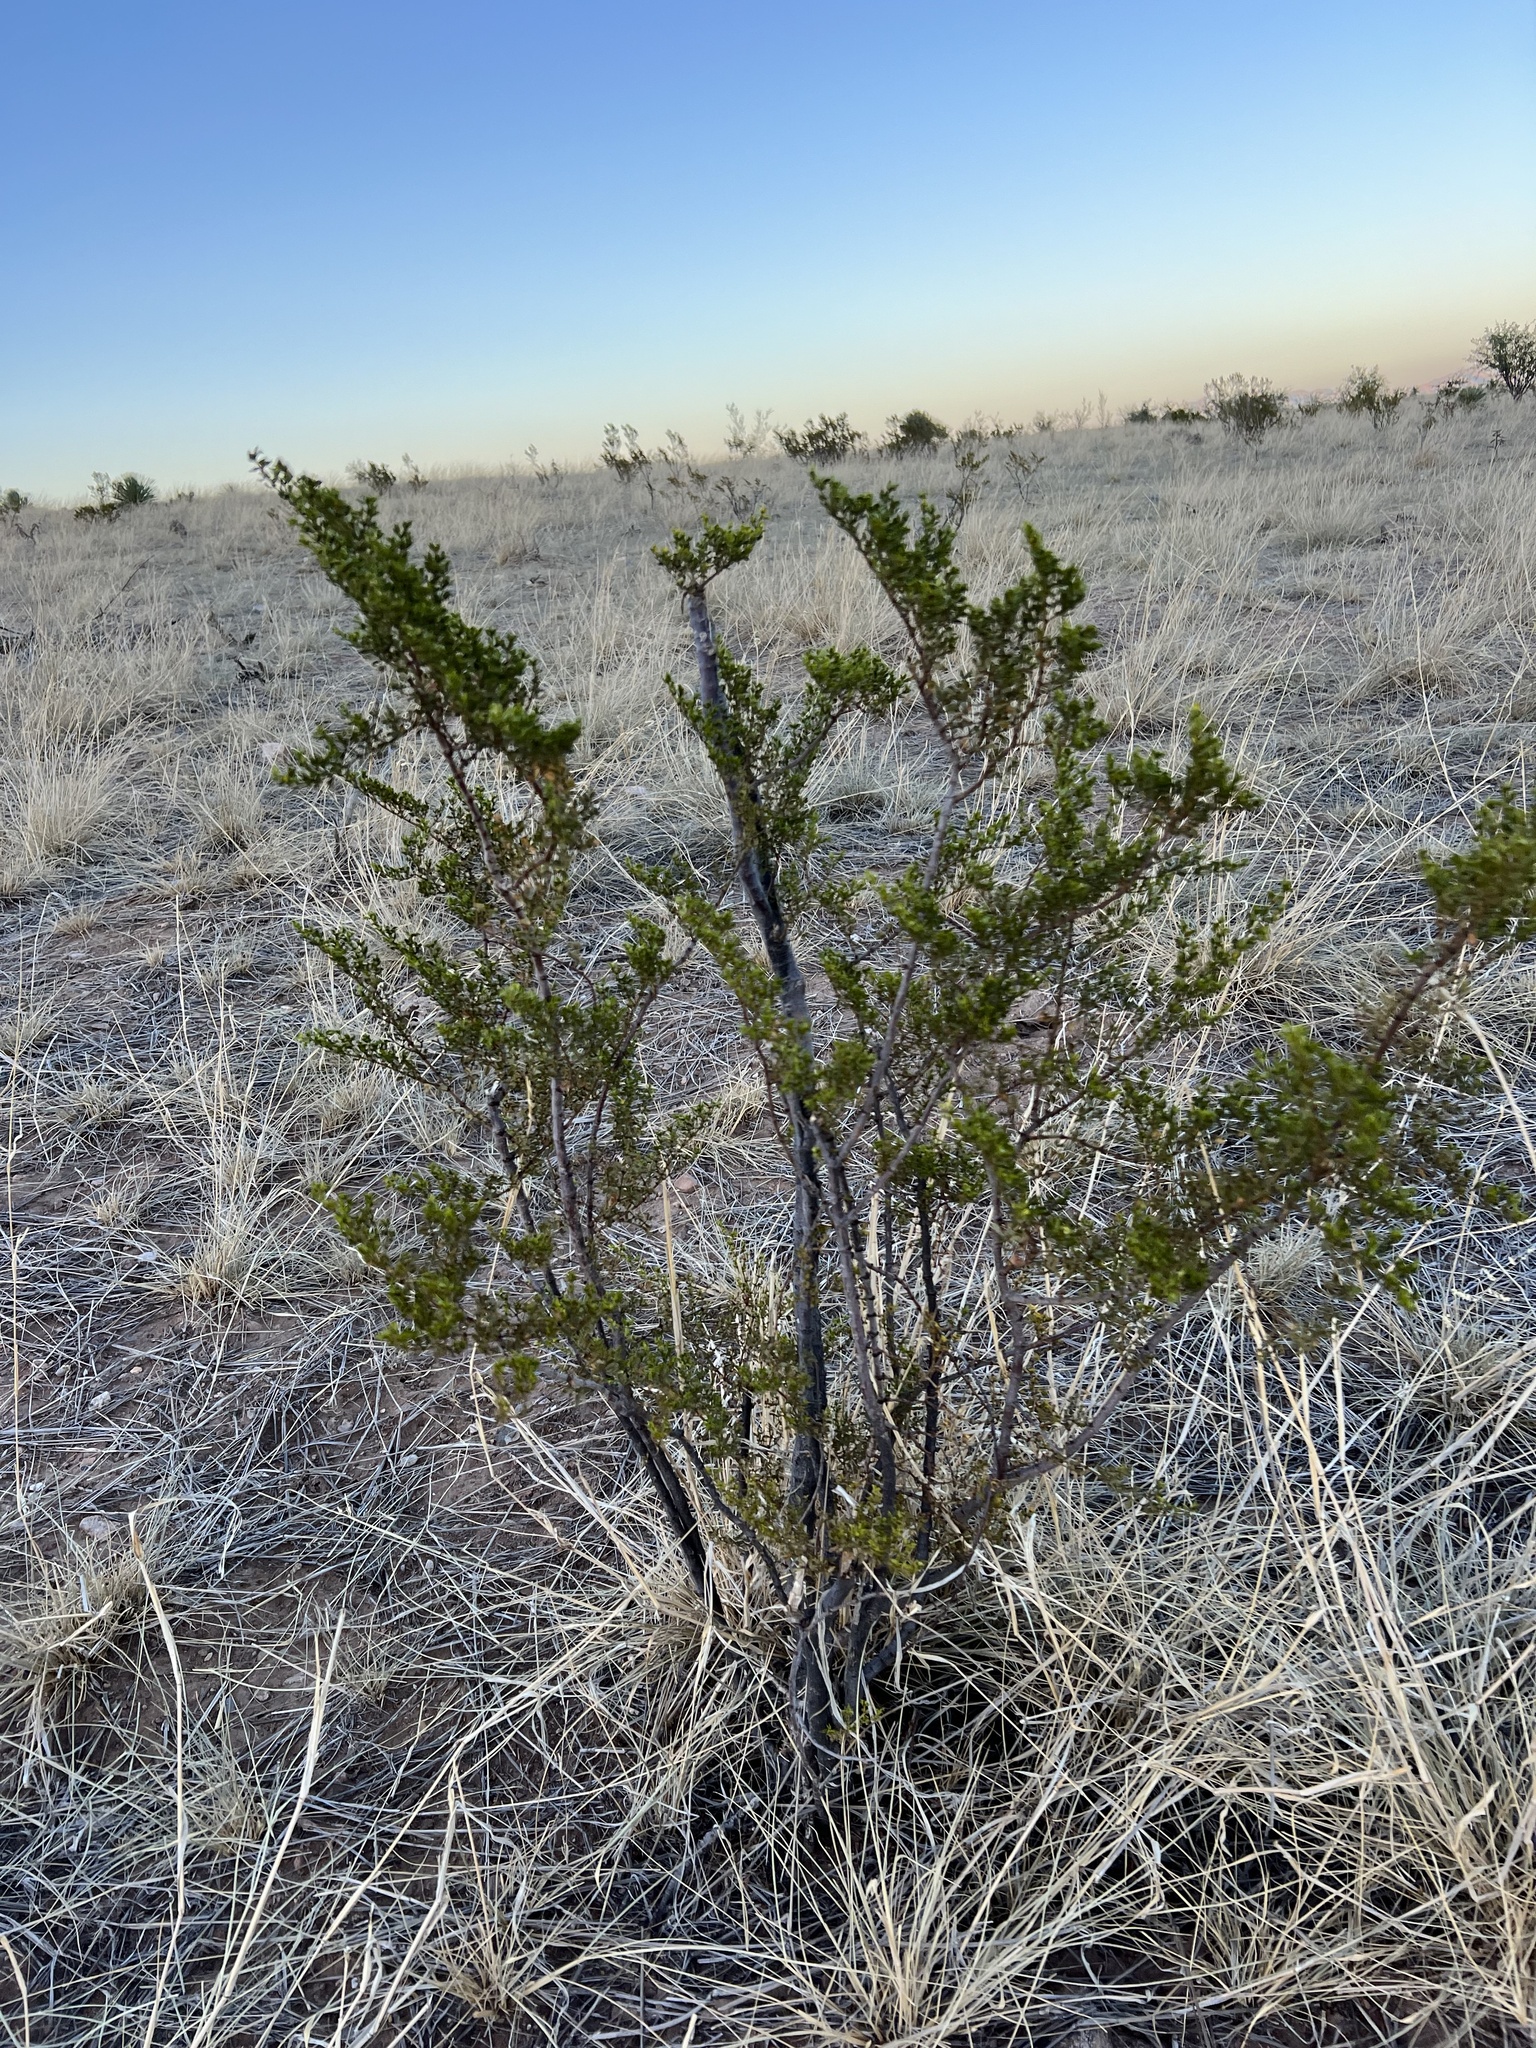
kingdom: Plantae
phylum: Tracheophyta
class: Magnoliopsida
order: Zygophyllales
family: Zygophyllaceae
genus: Larrea
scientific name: Larrea tridentata
